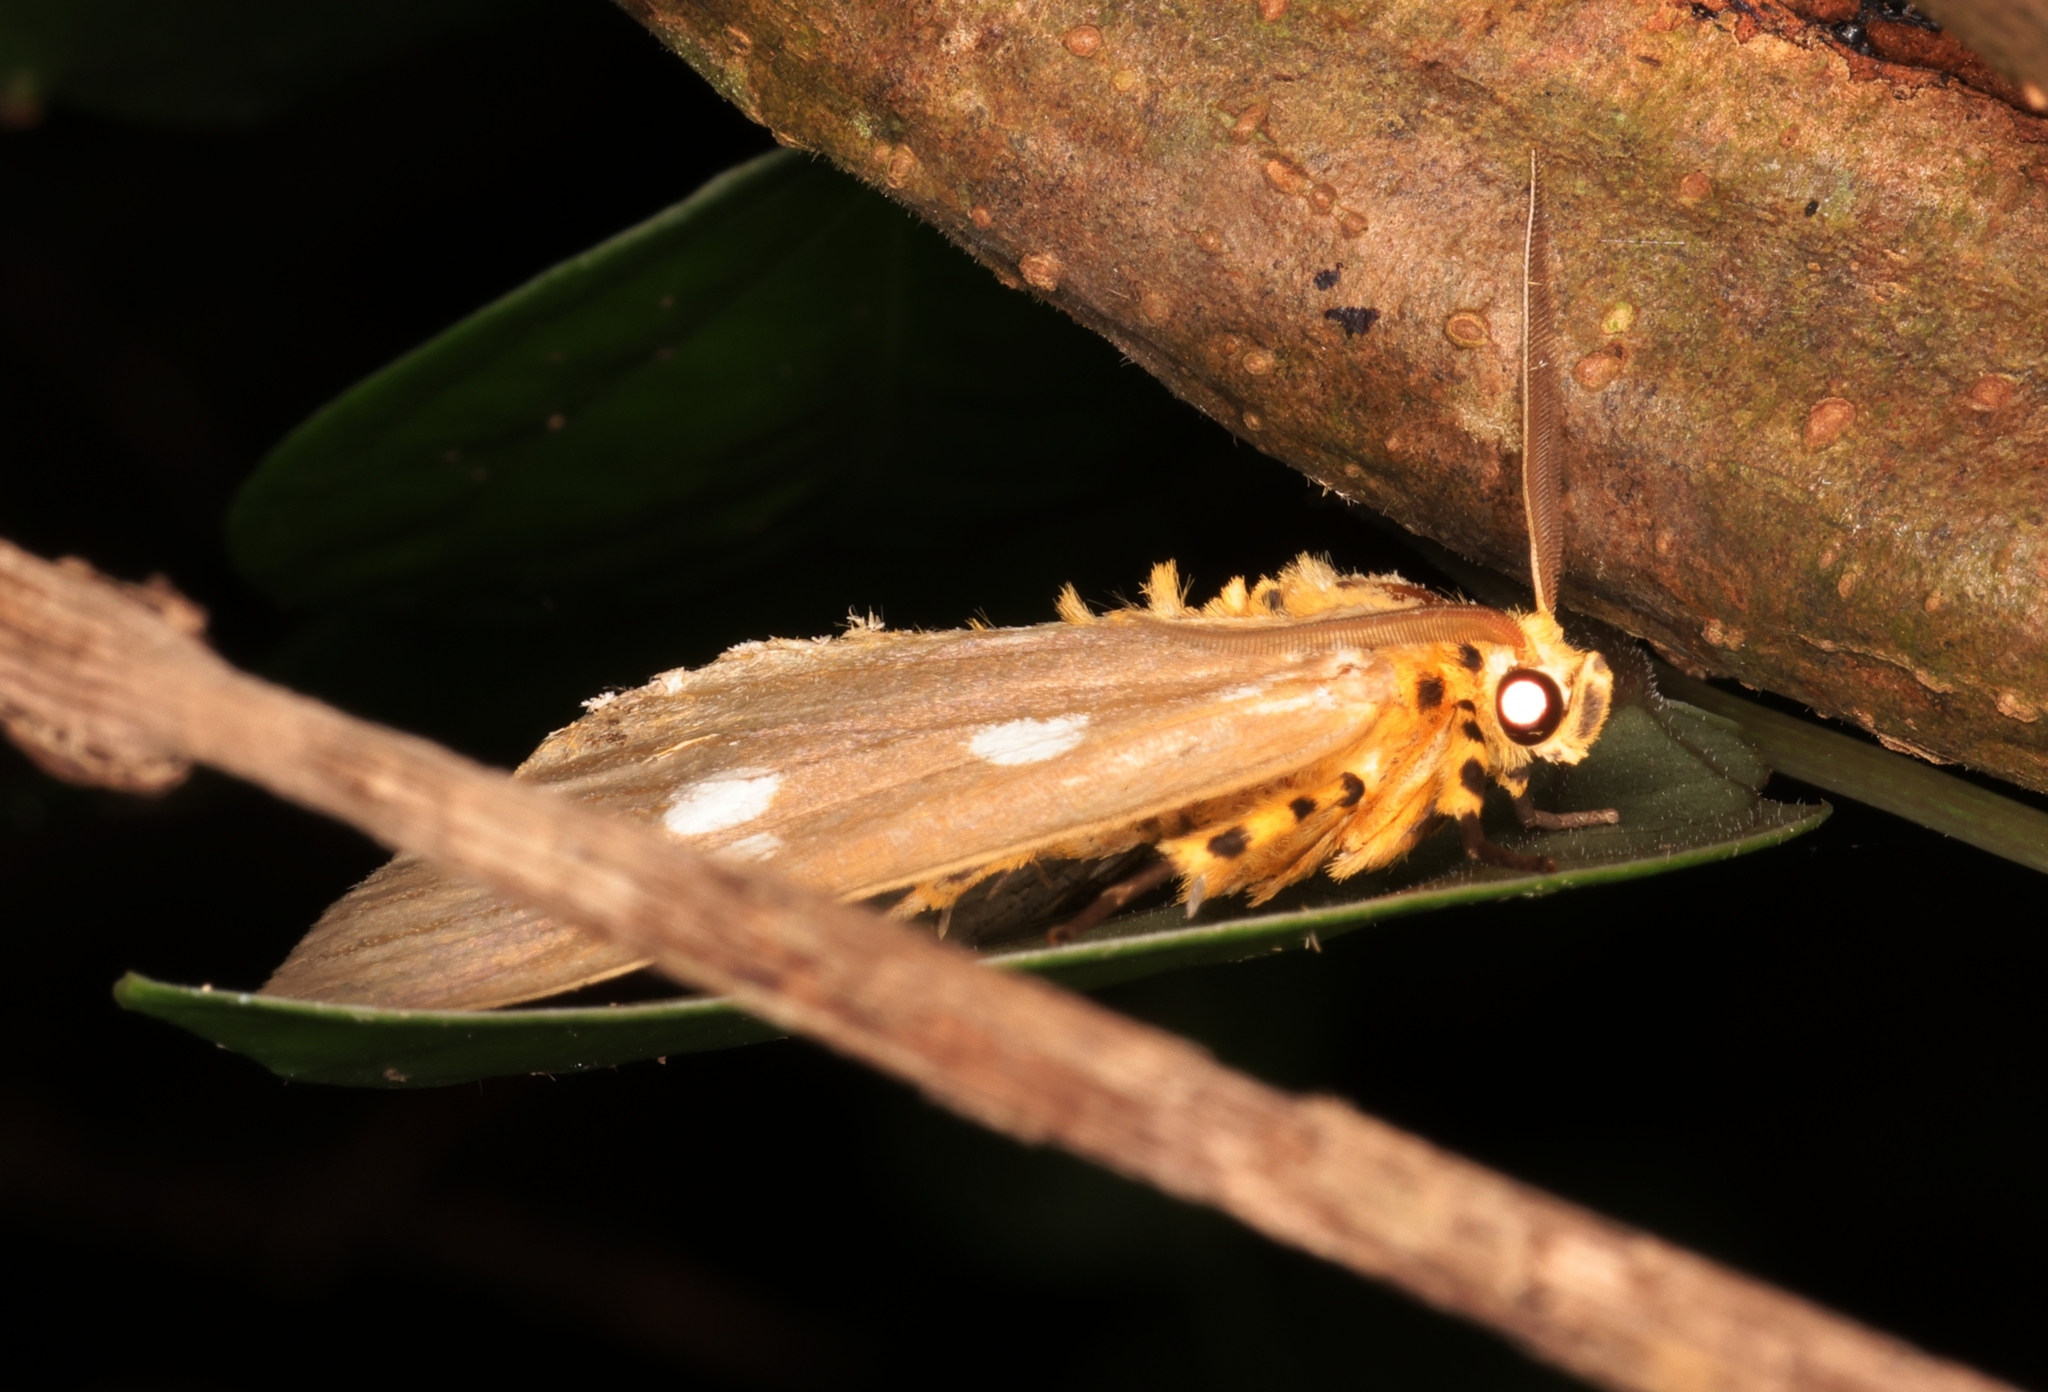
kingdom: Animalia
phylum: Arthropoda
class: Insecta
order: Lepidoptera
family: Erebidae
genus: Tinolius
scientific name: Tinolius hypsana
